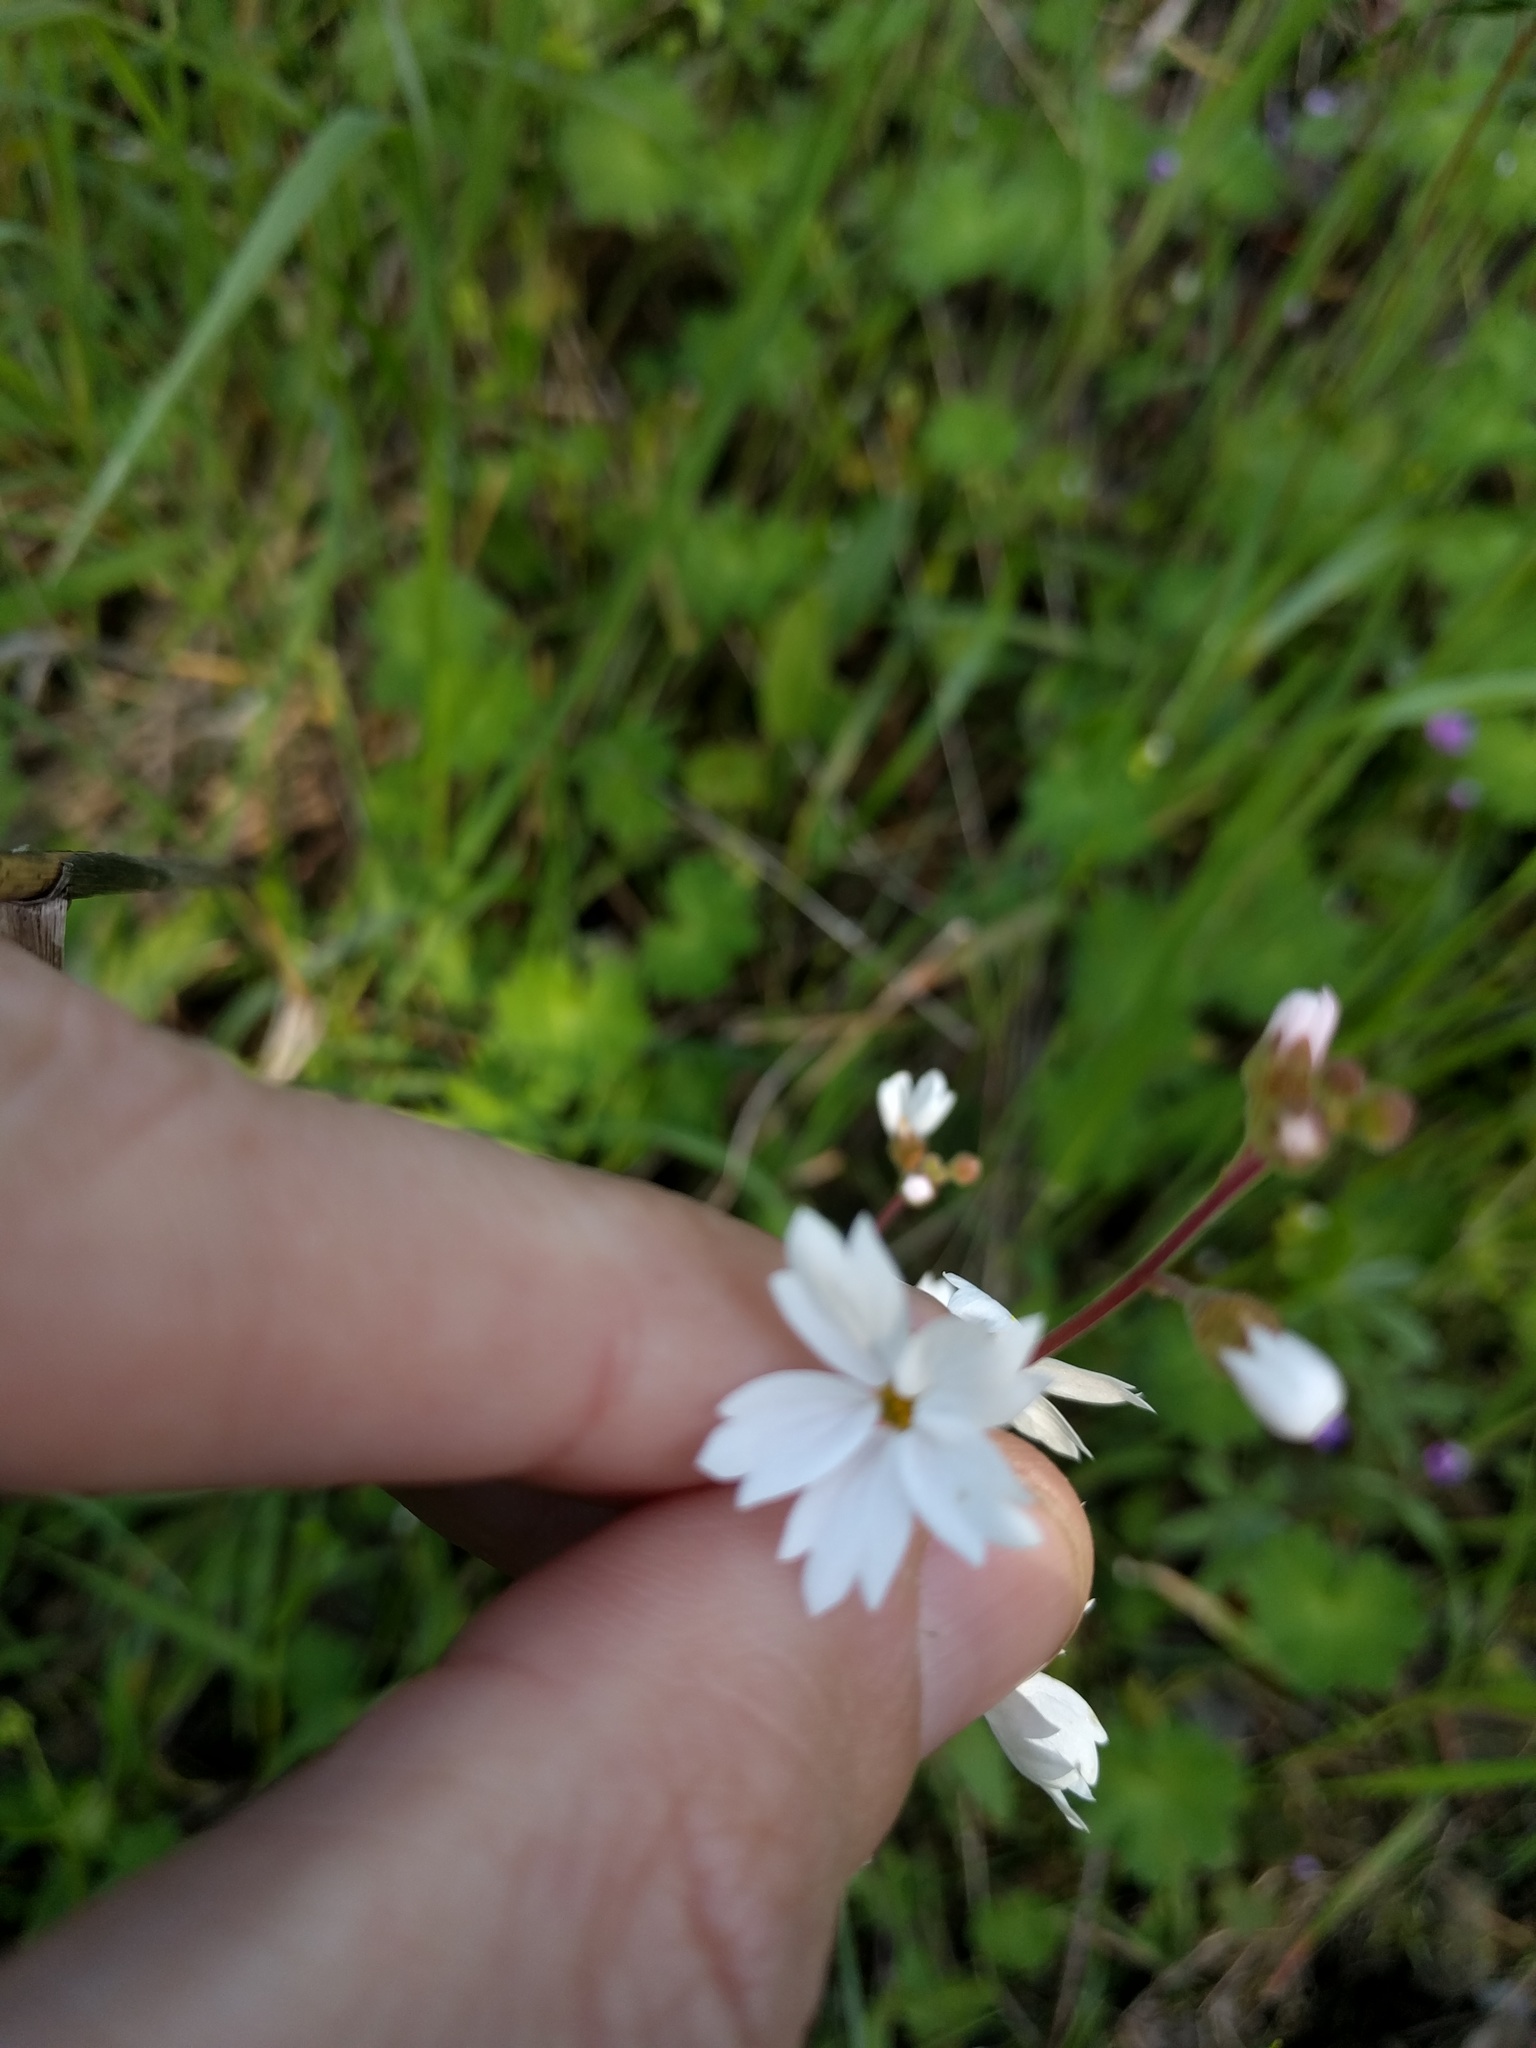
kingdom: Plantae
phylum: Tracheophyta
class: Magnoliopsida
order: Saxifragales
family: Saxifragaceae
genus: Lithophragma
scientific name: Lithophragma affine
